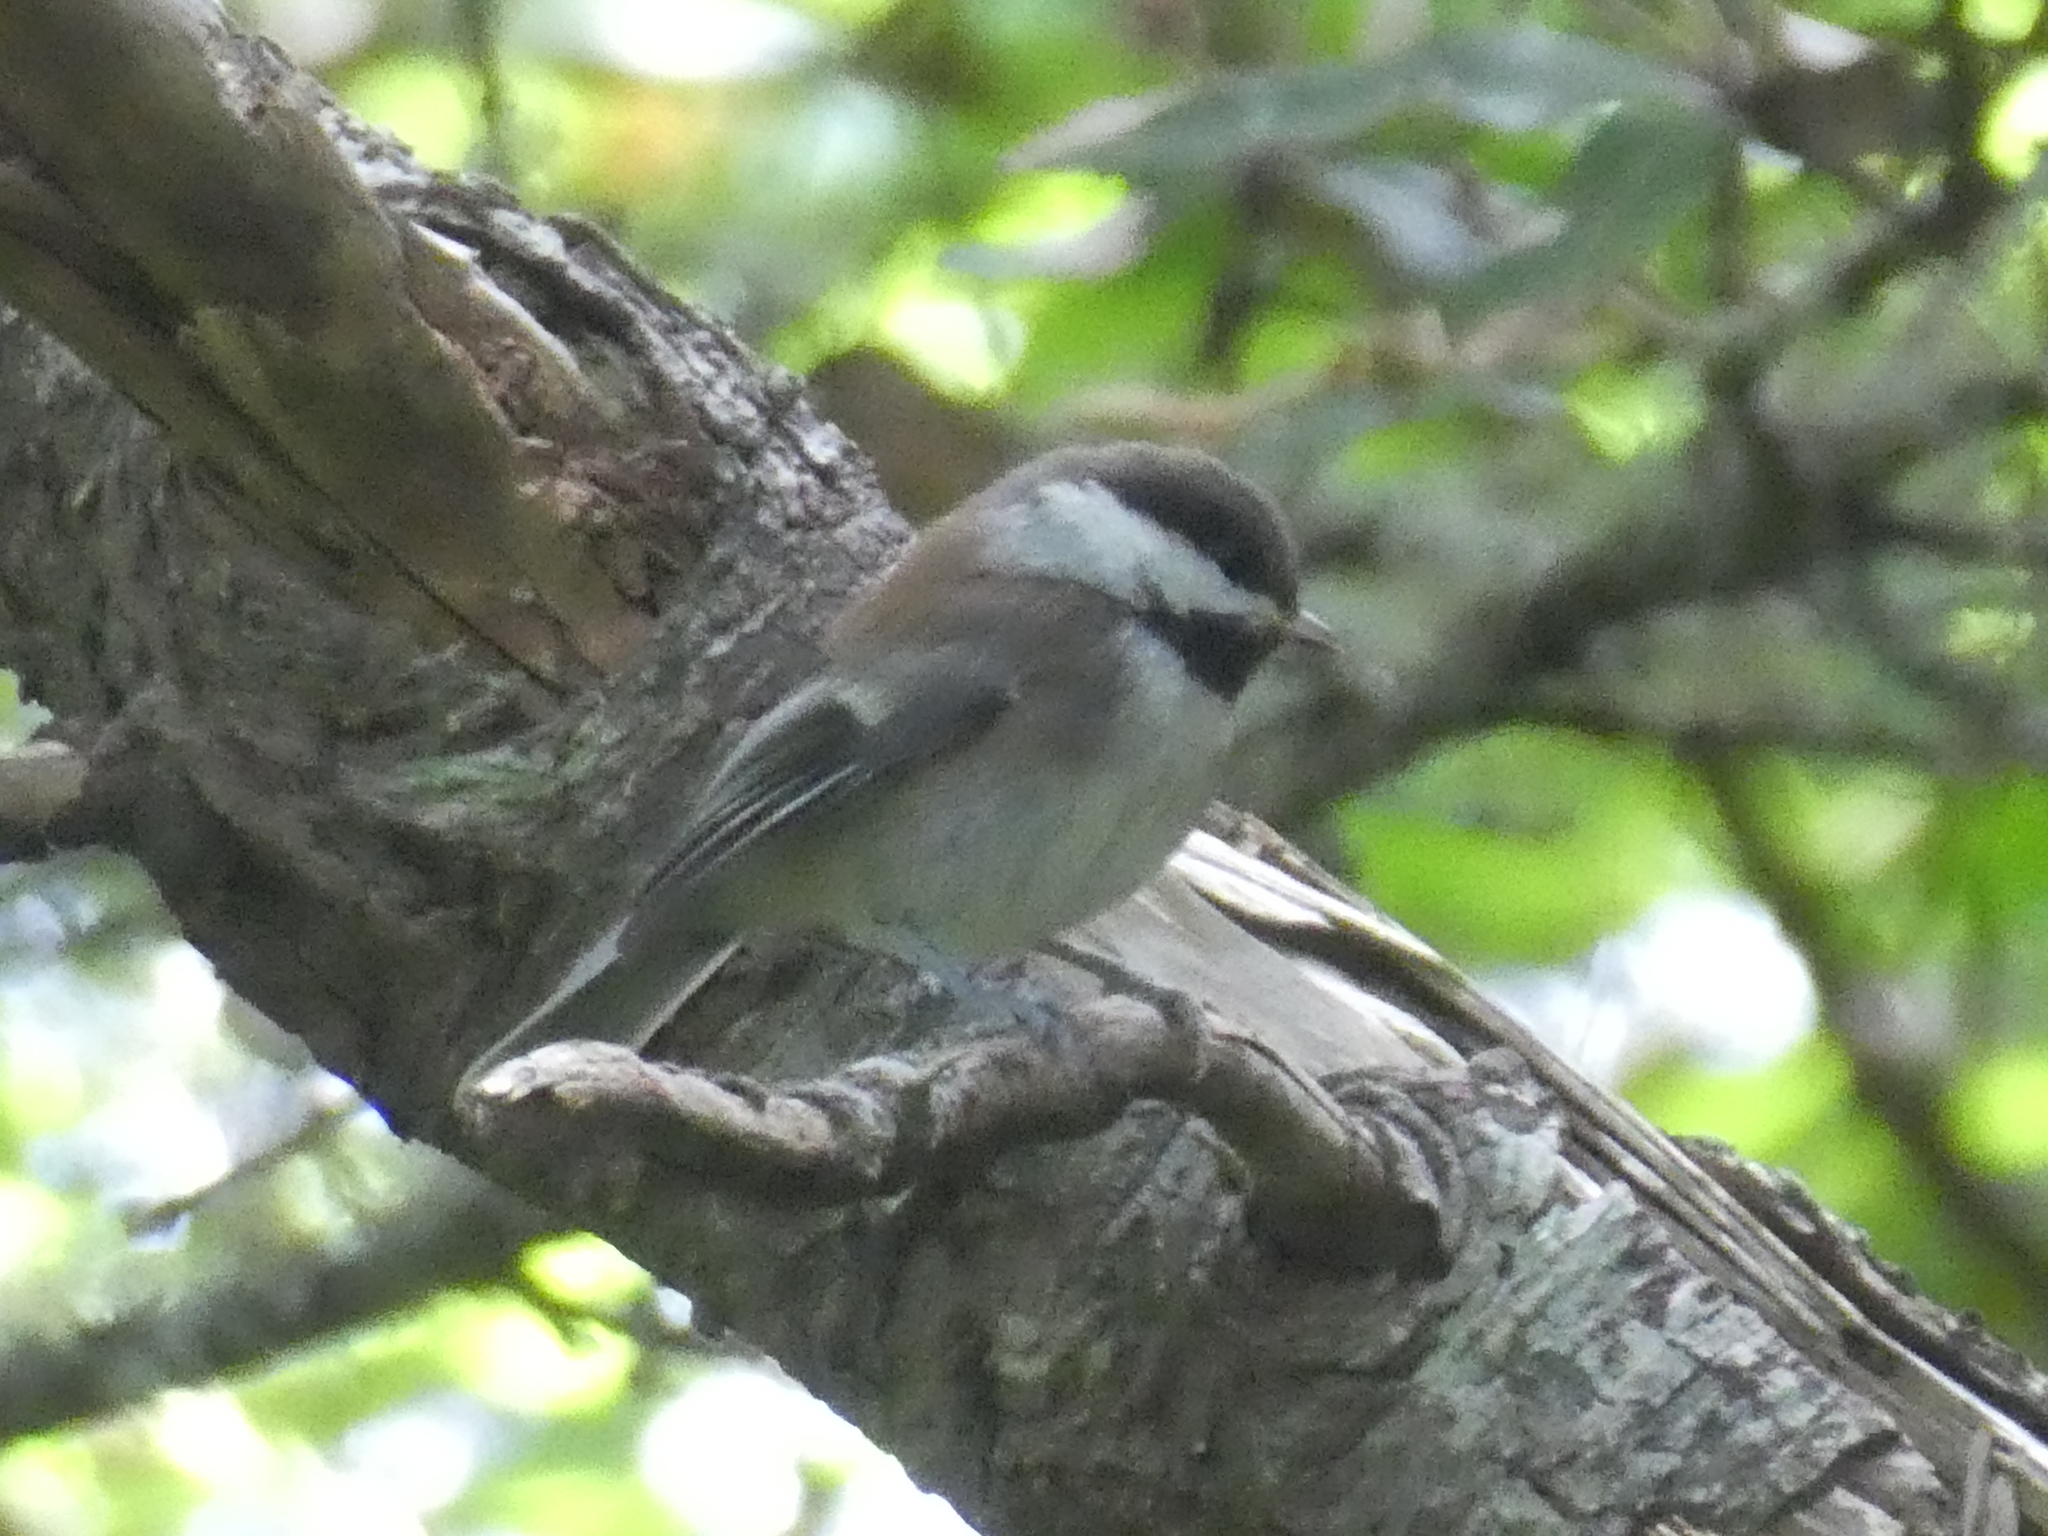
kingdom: Animalia
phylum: Chordata
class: Aves
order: Passeriformes
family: Paridae
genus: Poecile
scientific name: Poecile rufescens
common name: Chestnut-backed chickadee
